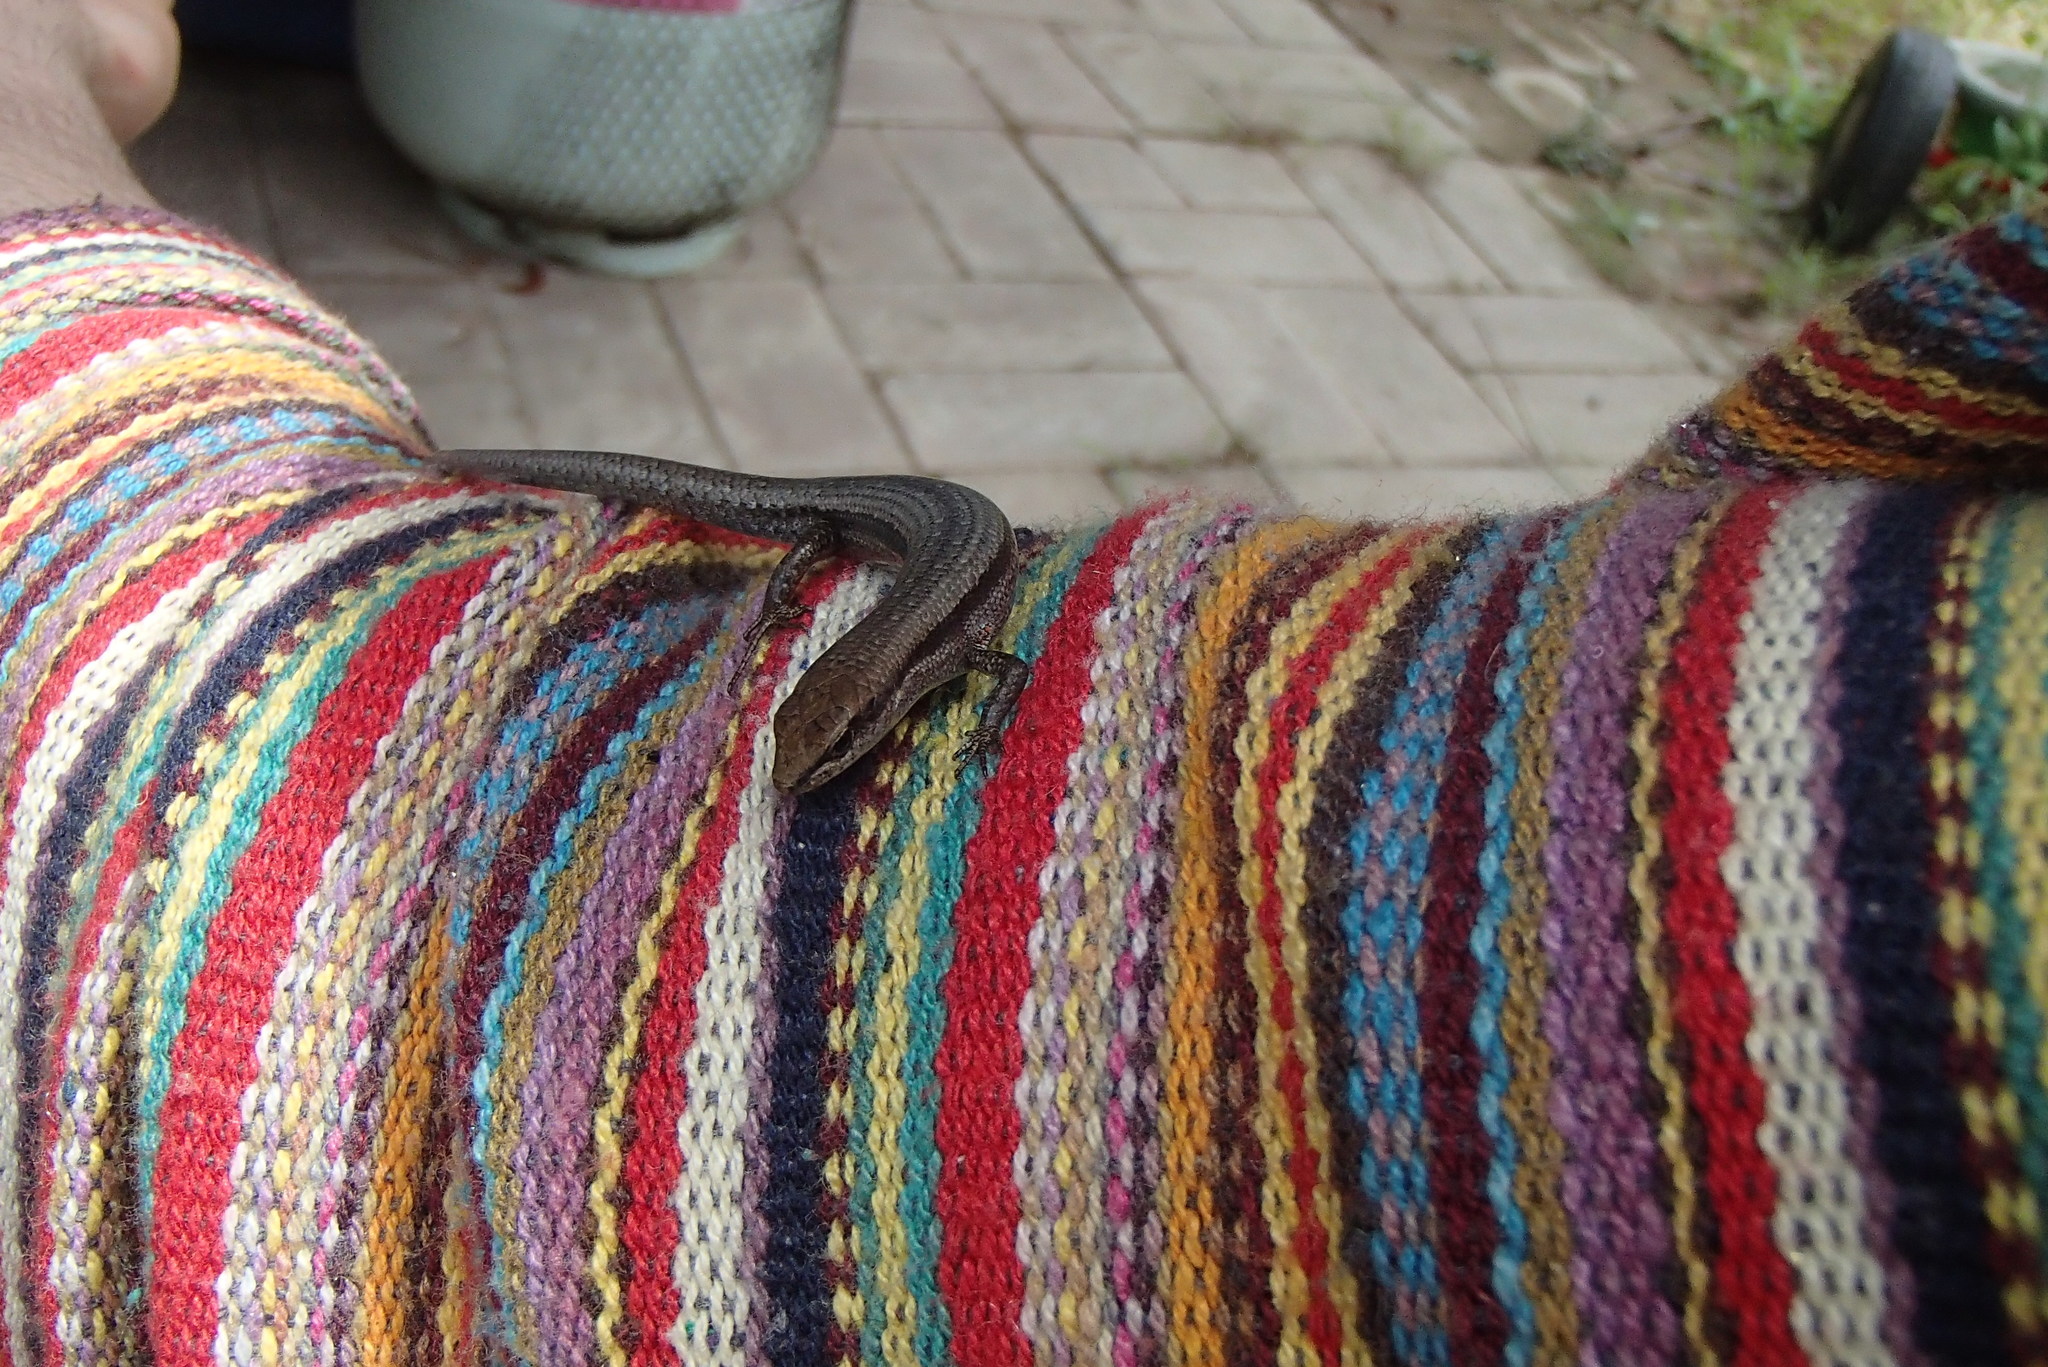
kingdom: Animalia
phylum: Chordata
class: Squamata
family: Scincidae
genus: Lampropholis
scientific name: Lampropholis guichenoti
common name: Garden skink
